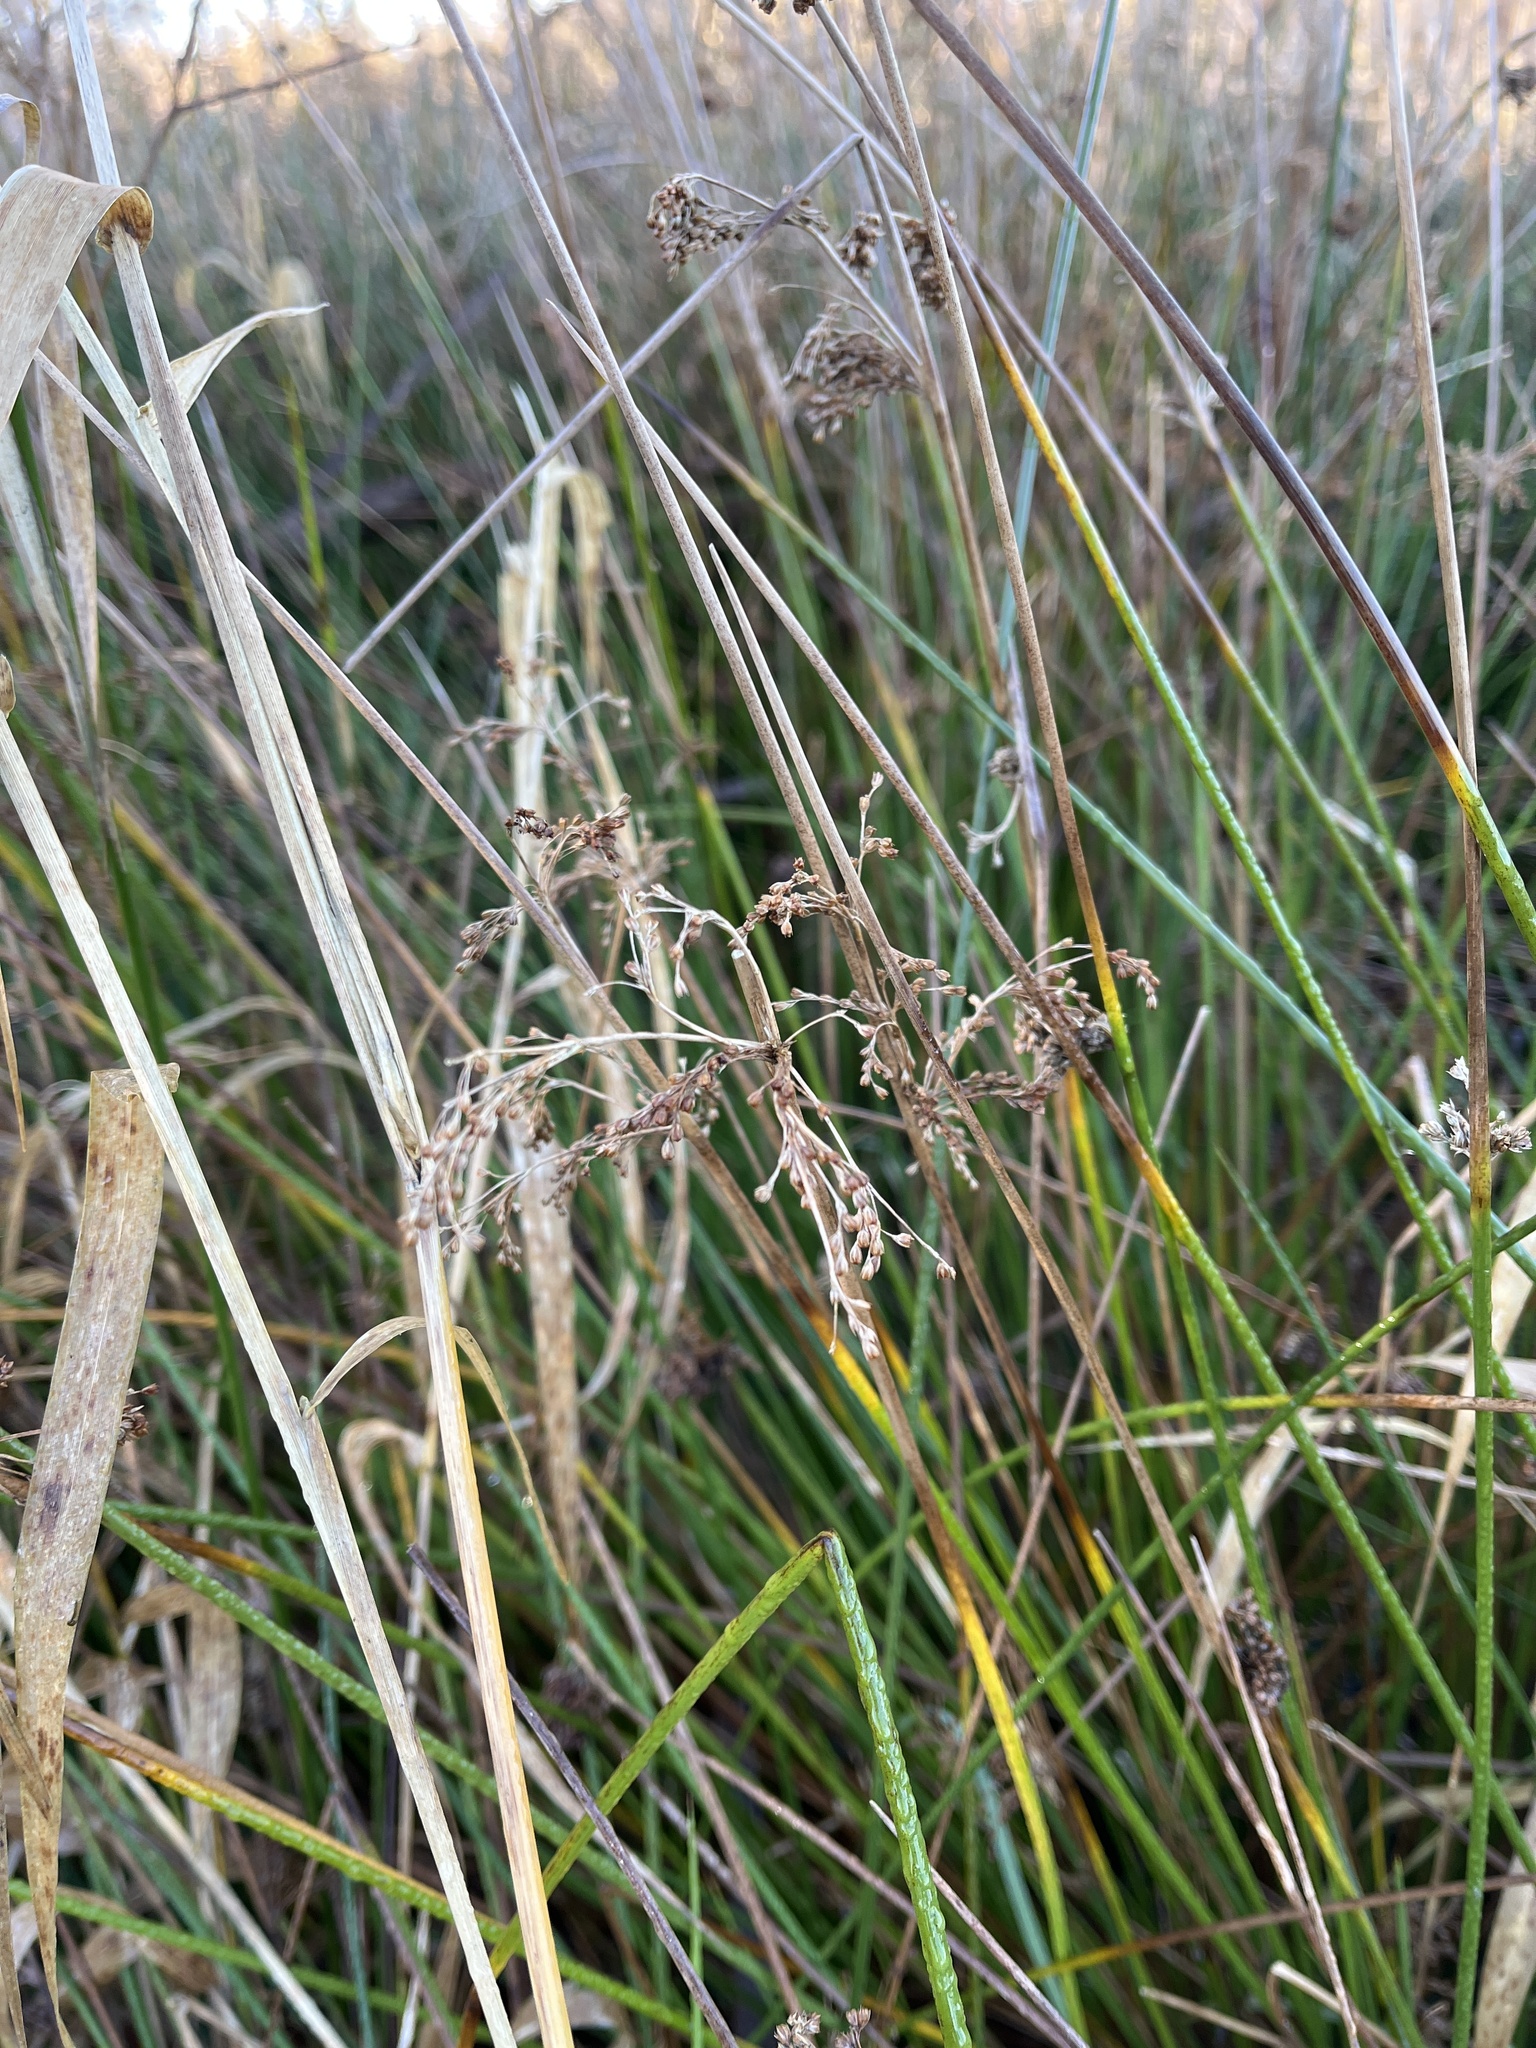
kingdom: Plantae
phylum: Tracheophyta
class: Liliopsida
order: Poales
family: Juncaceae
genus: Juncus
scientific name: Juncus effusus
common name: Soft rush
